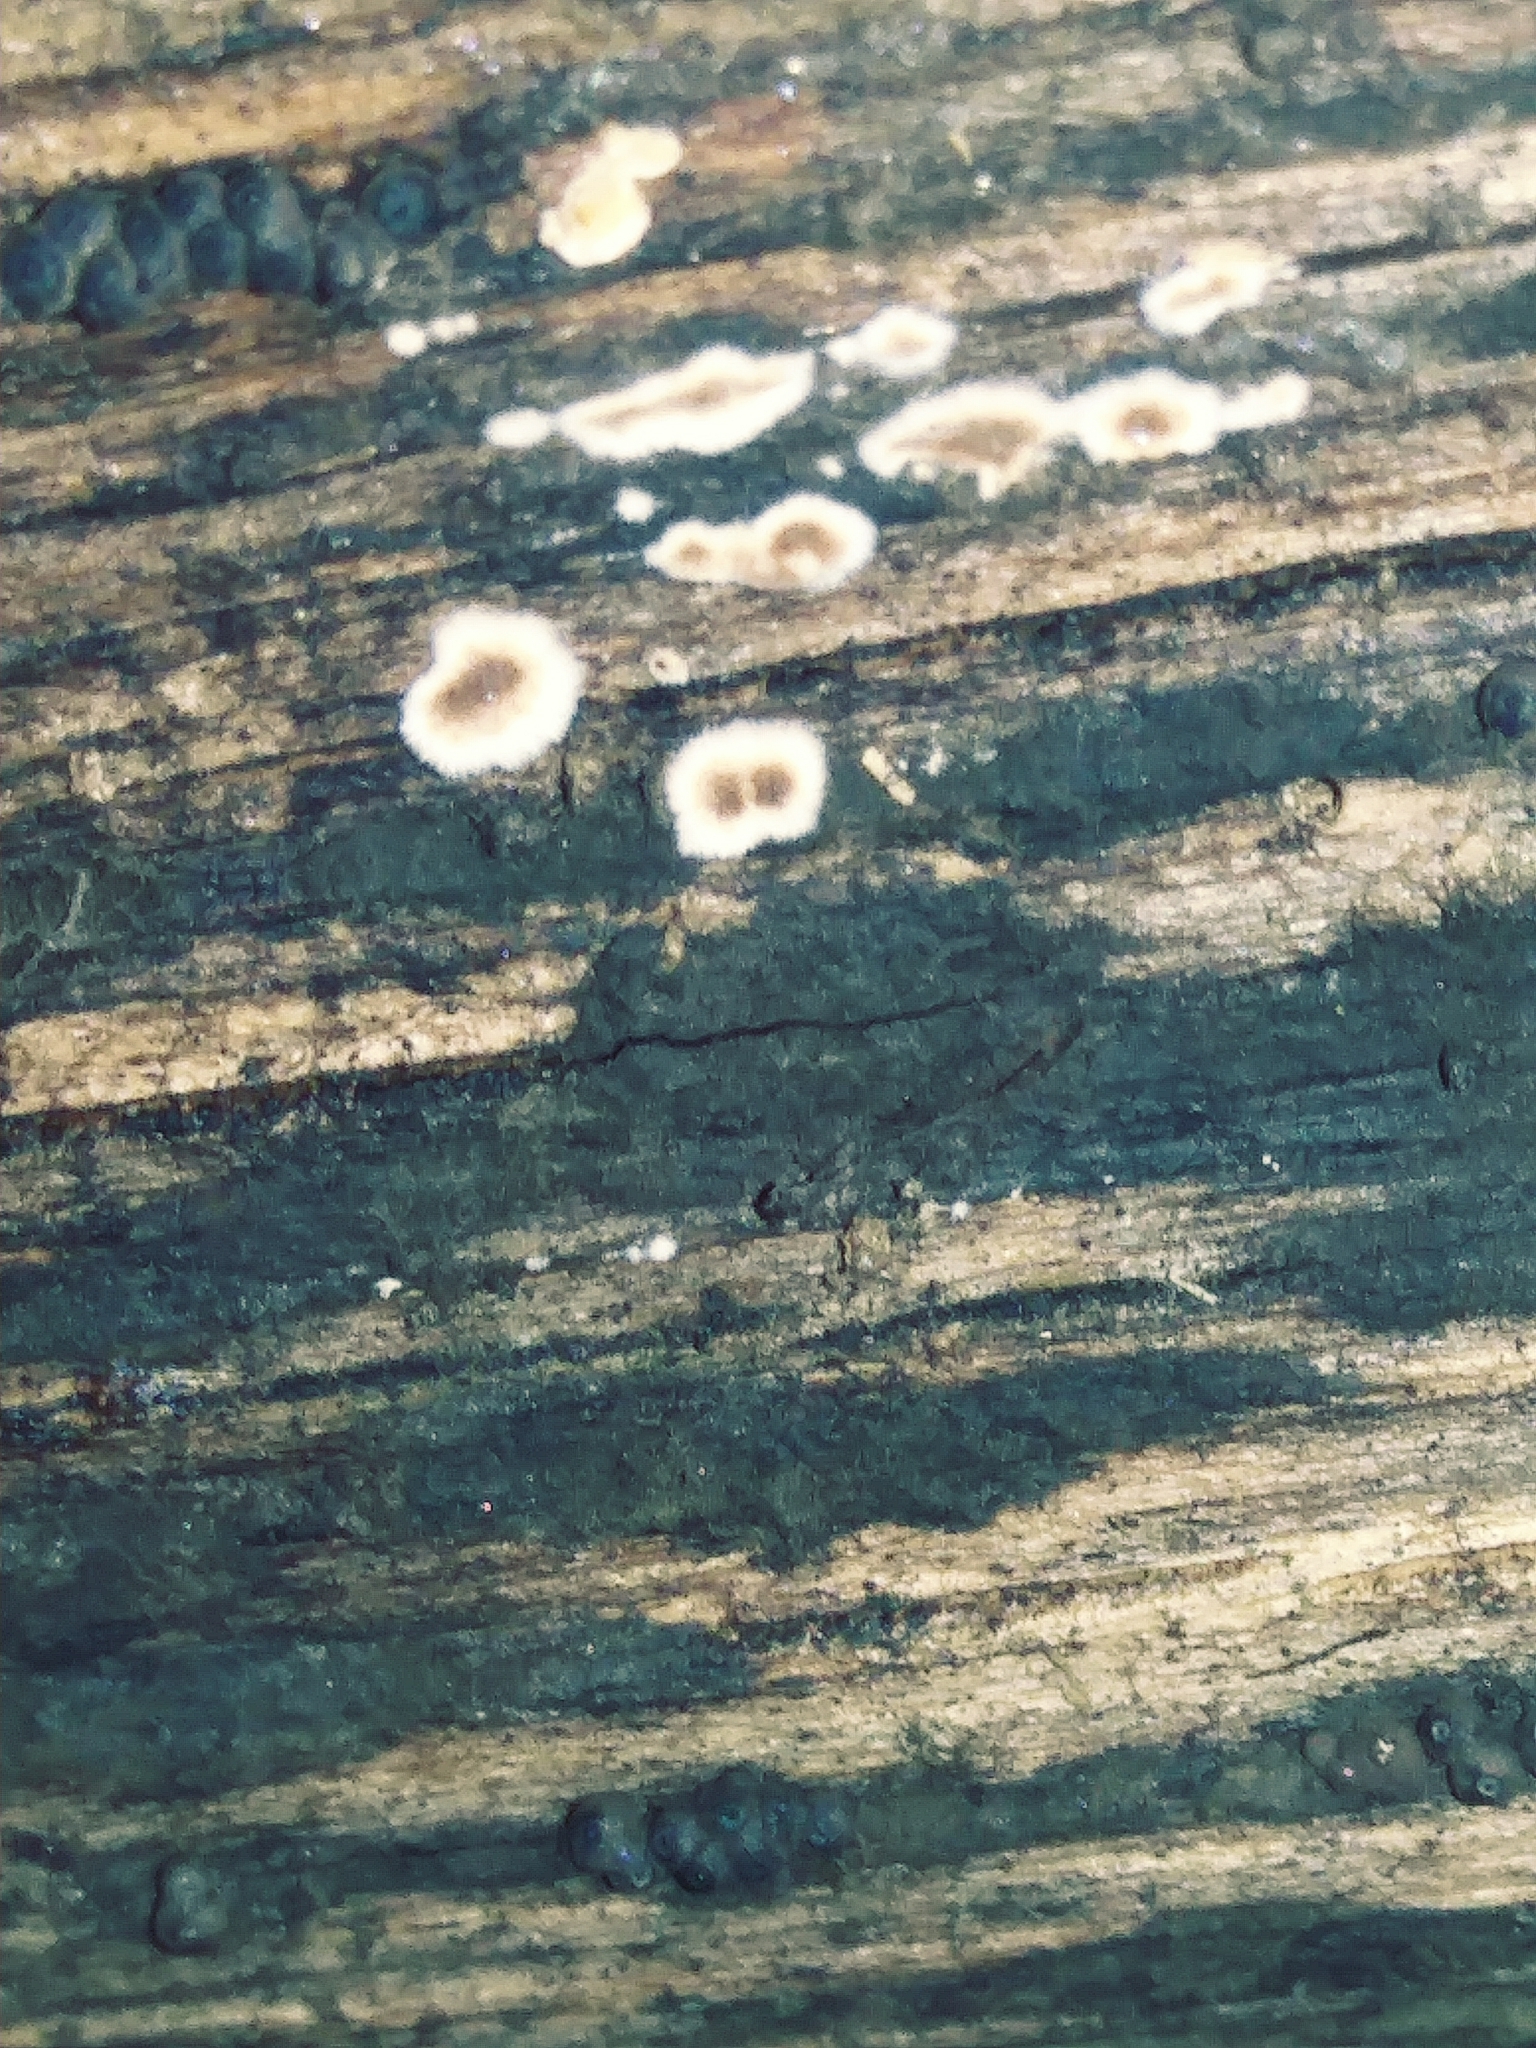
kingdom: Fungi
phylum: Basidiomycota
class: Agaricomycetes
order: Russulales
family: Peniophoraceae
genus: Peniophora
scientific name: Peniophora albobadia
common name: Giraffe spots
